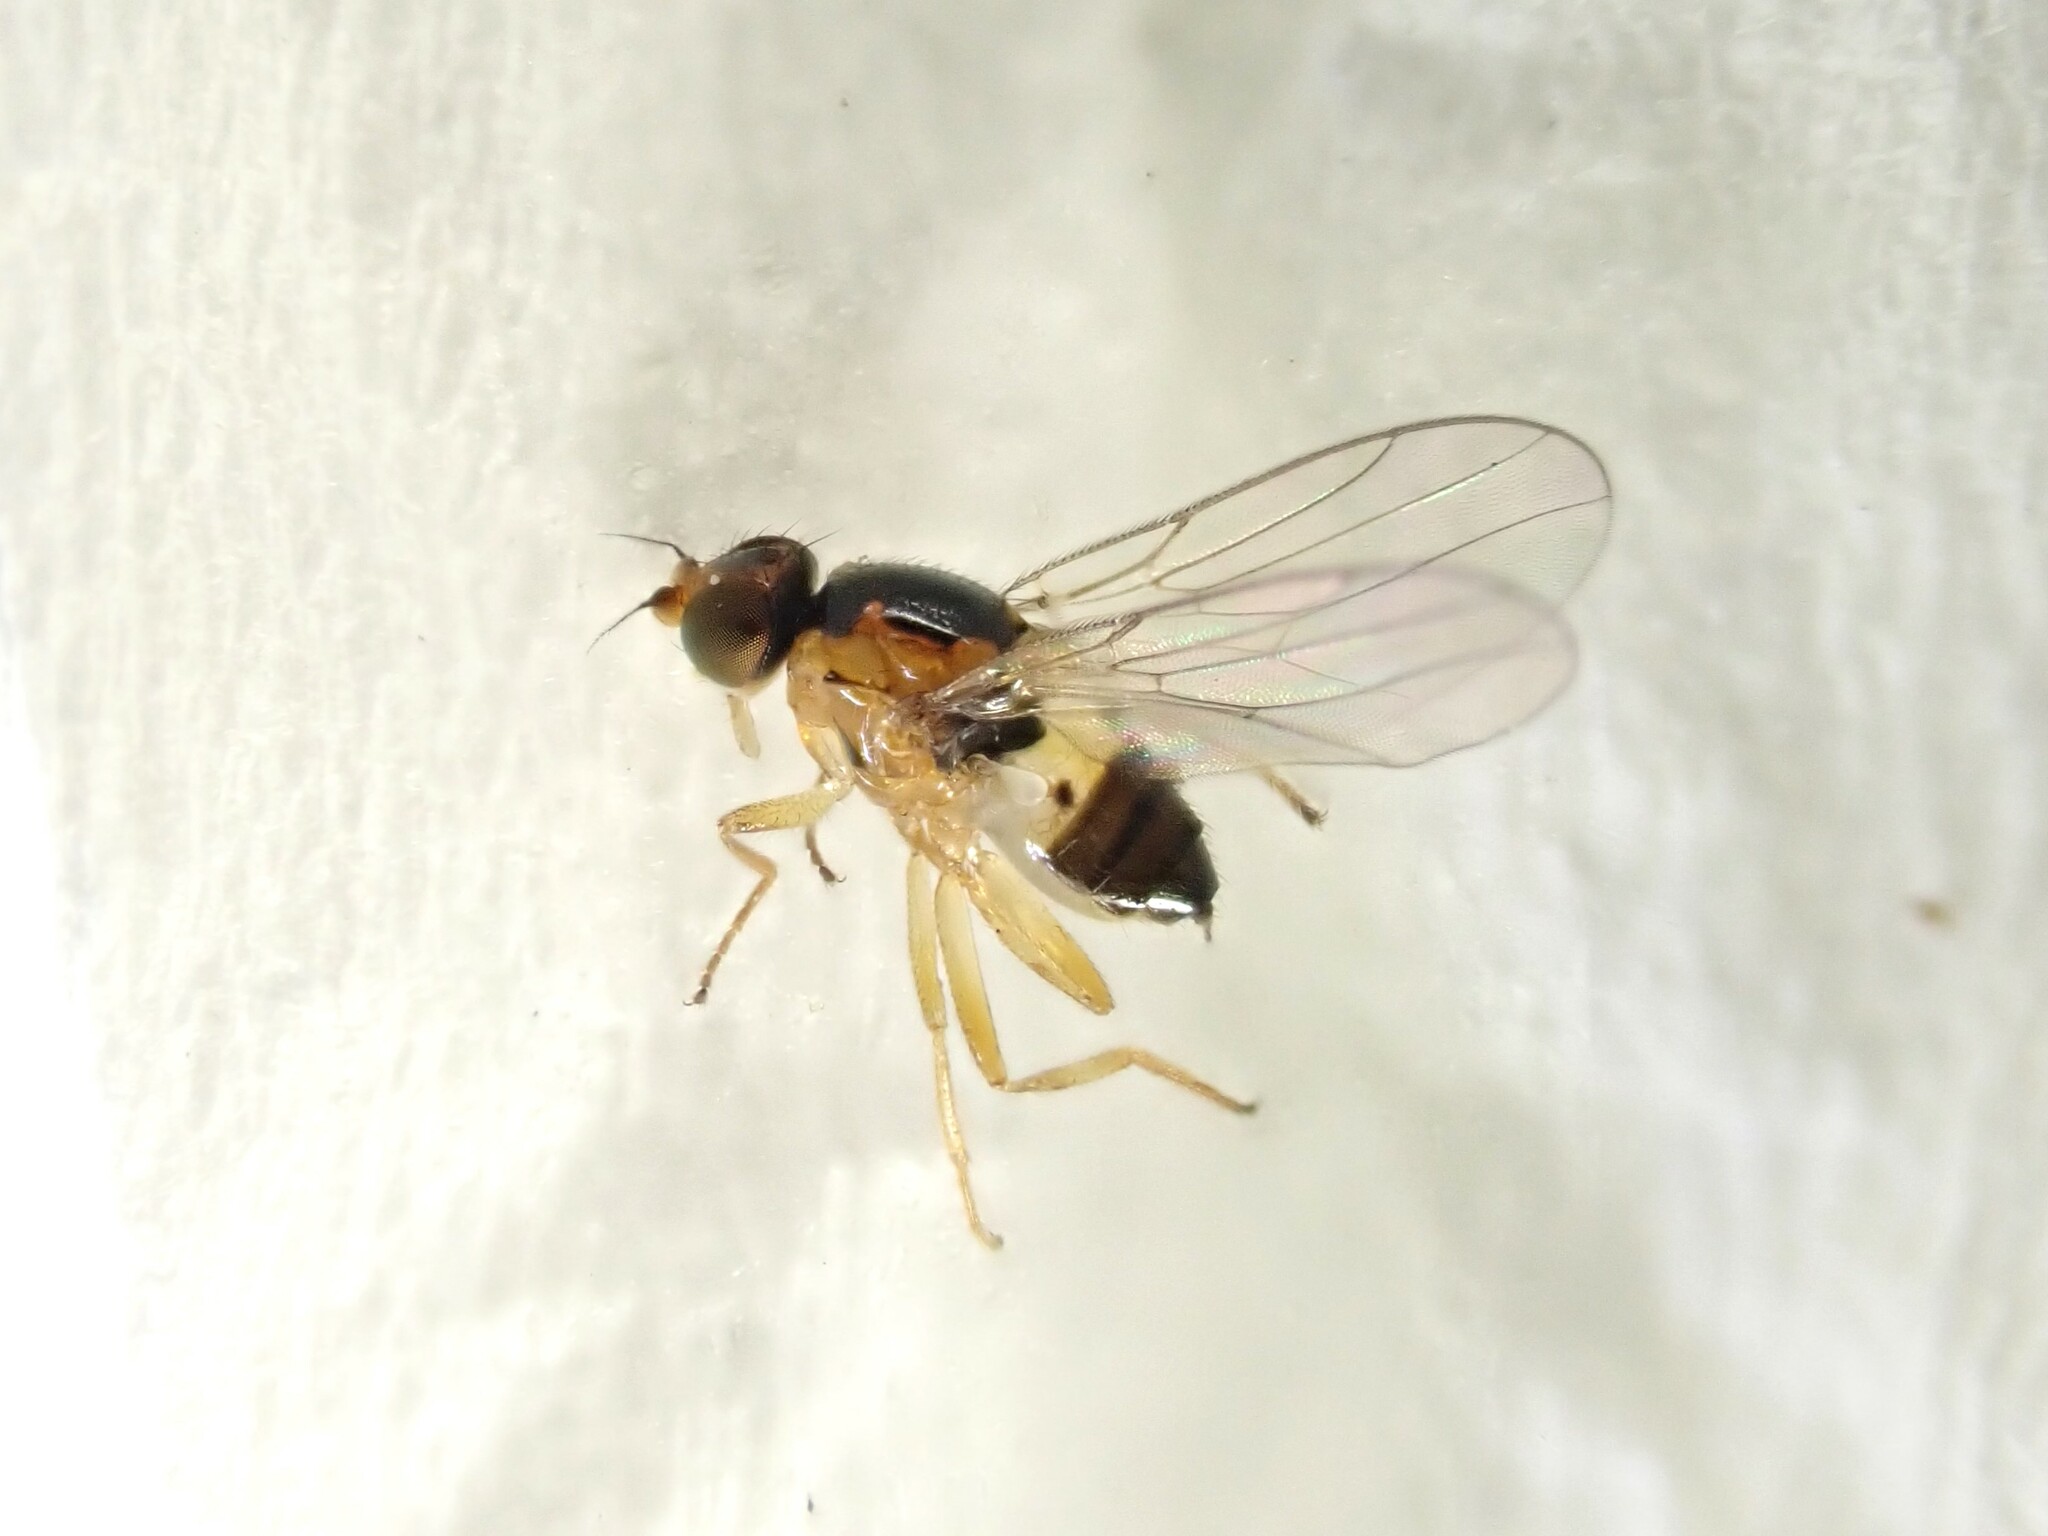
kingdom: Animalia
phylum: Arthropoda
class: Insecta
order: Diptera
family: Chloropidae
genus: Gaurax
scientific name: Gaurax mesopleuralis
